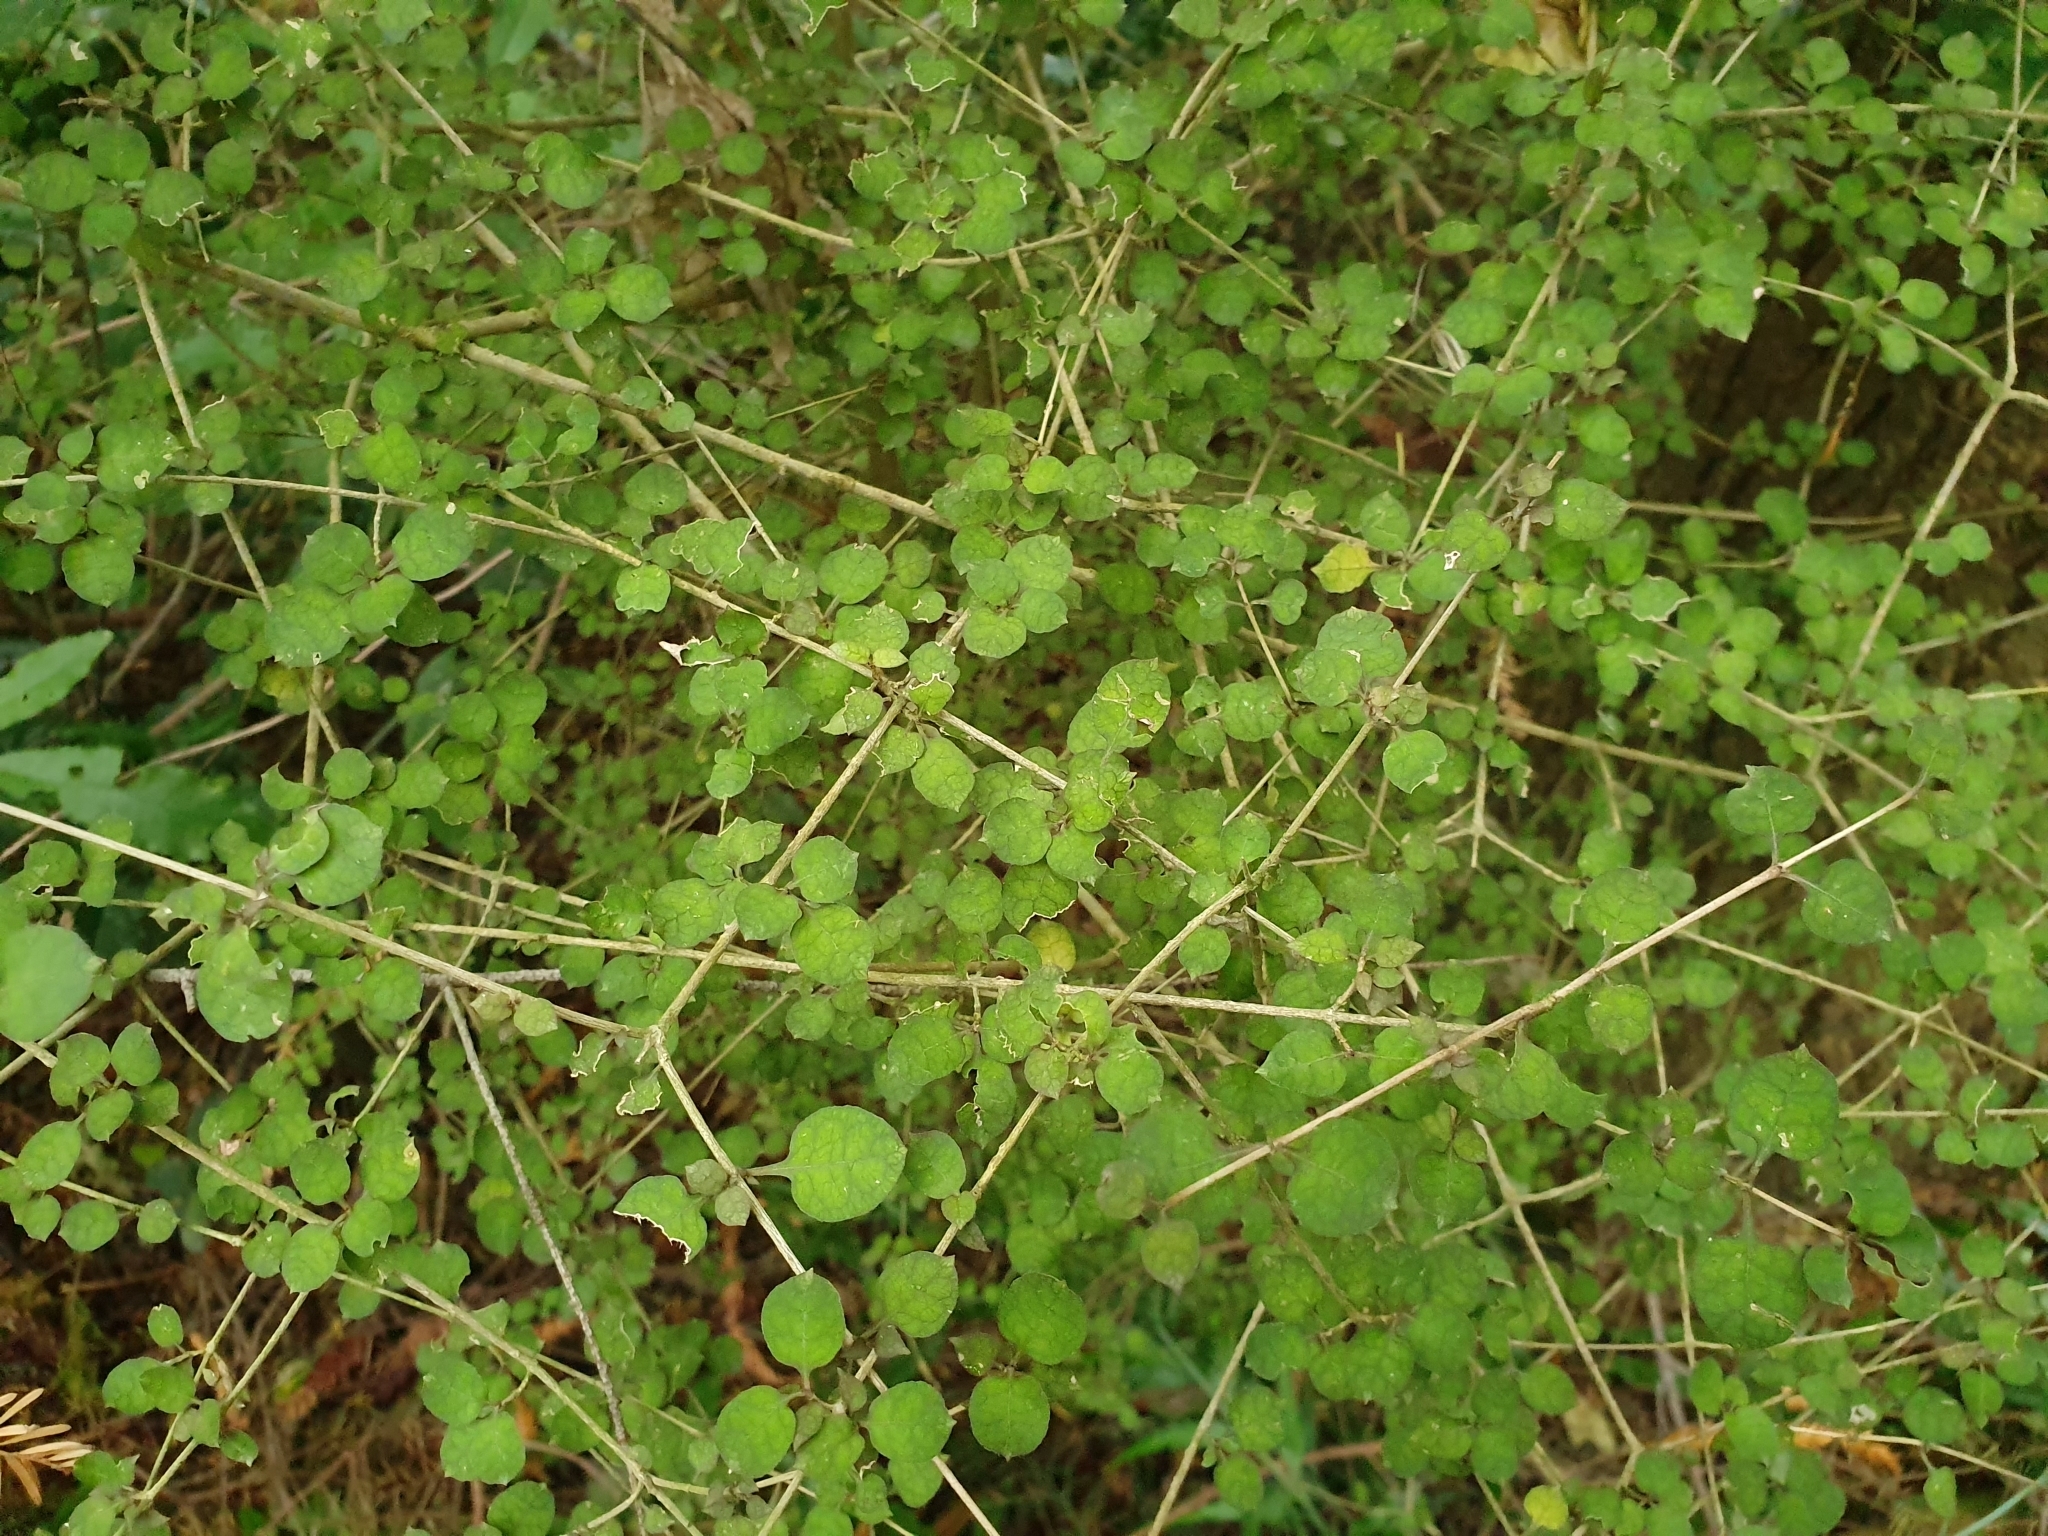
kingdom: Plantae
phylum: Tracheophyta
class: Magnoliopsida
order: Gentianales
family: Rubiaceae
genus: Coprosma
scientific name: Coprosma areolata
